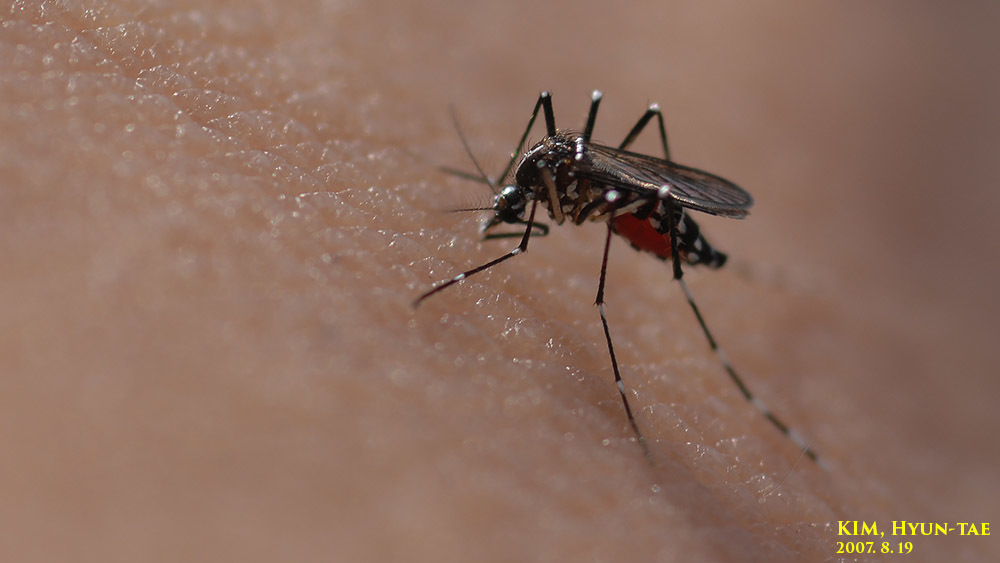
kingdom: Animalia
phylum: Arthropoda
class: Insecta
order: Diptera
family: Culicidae
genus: Aedes
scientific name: Aedes albopictus
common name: Tiger mosquito
